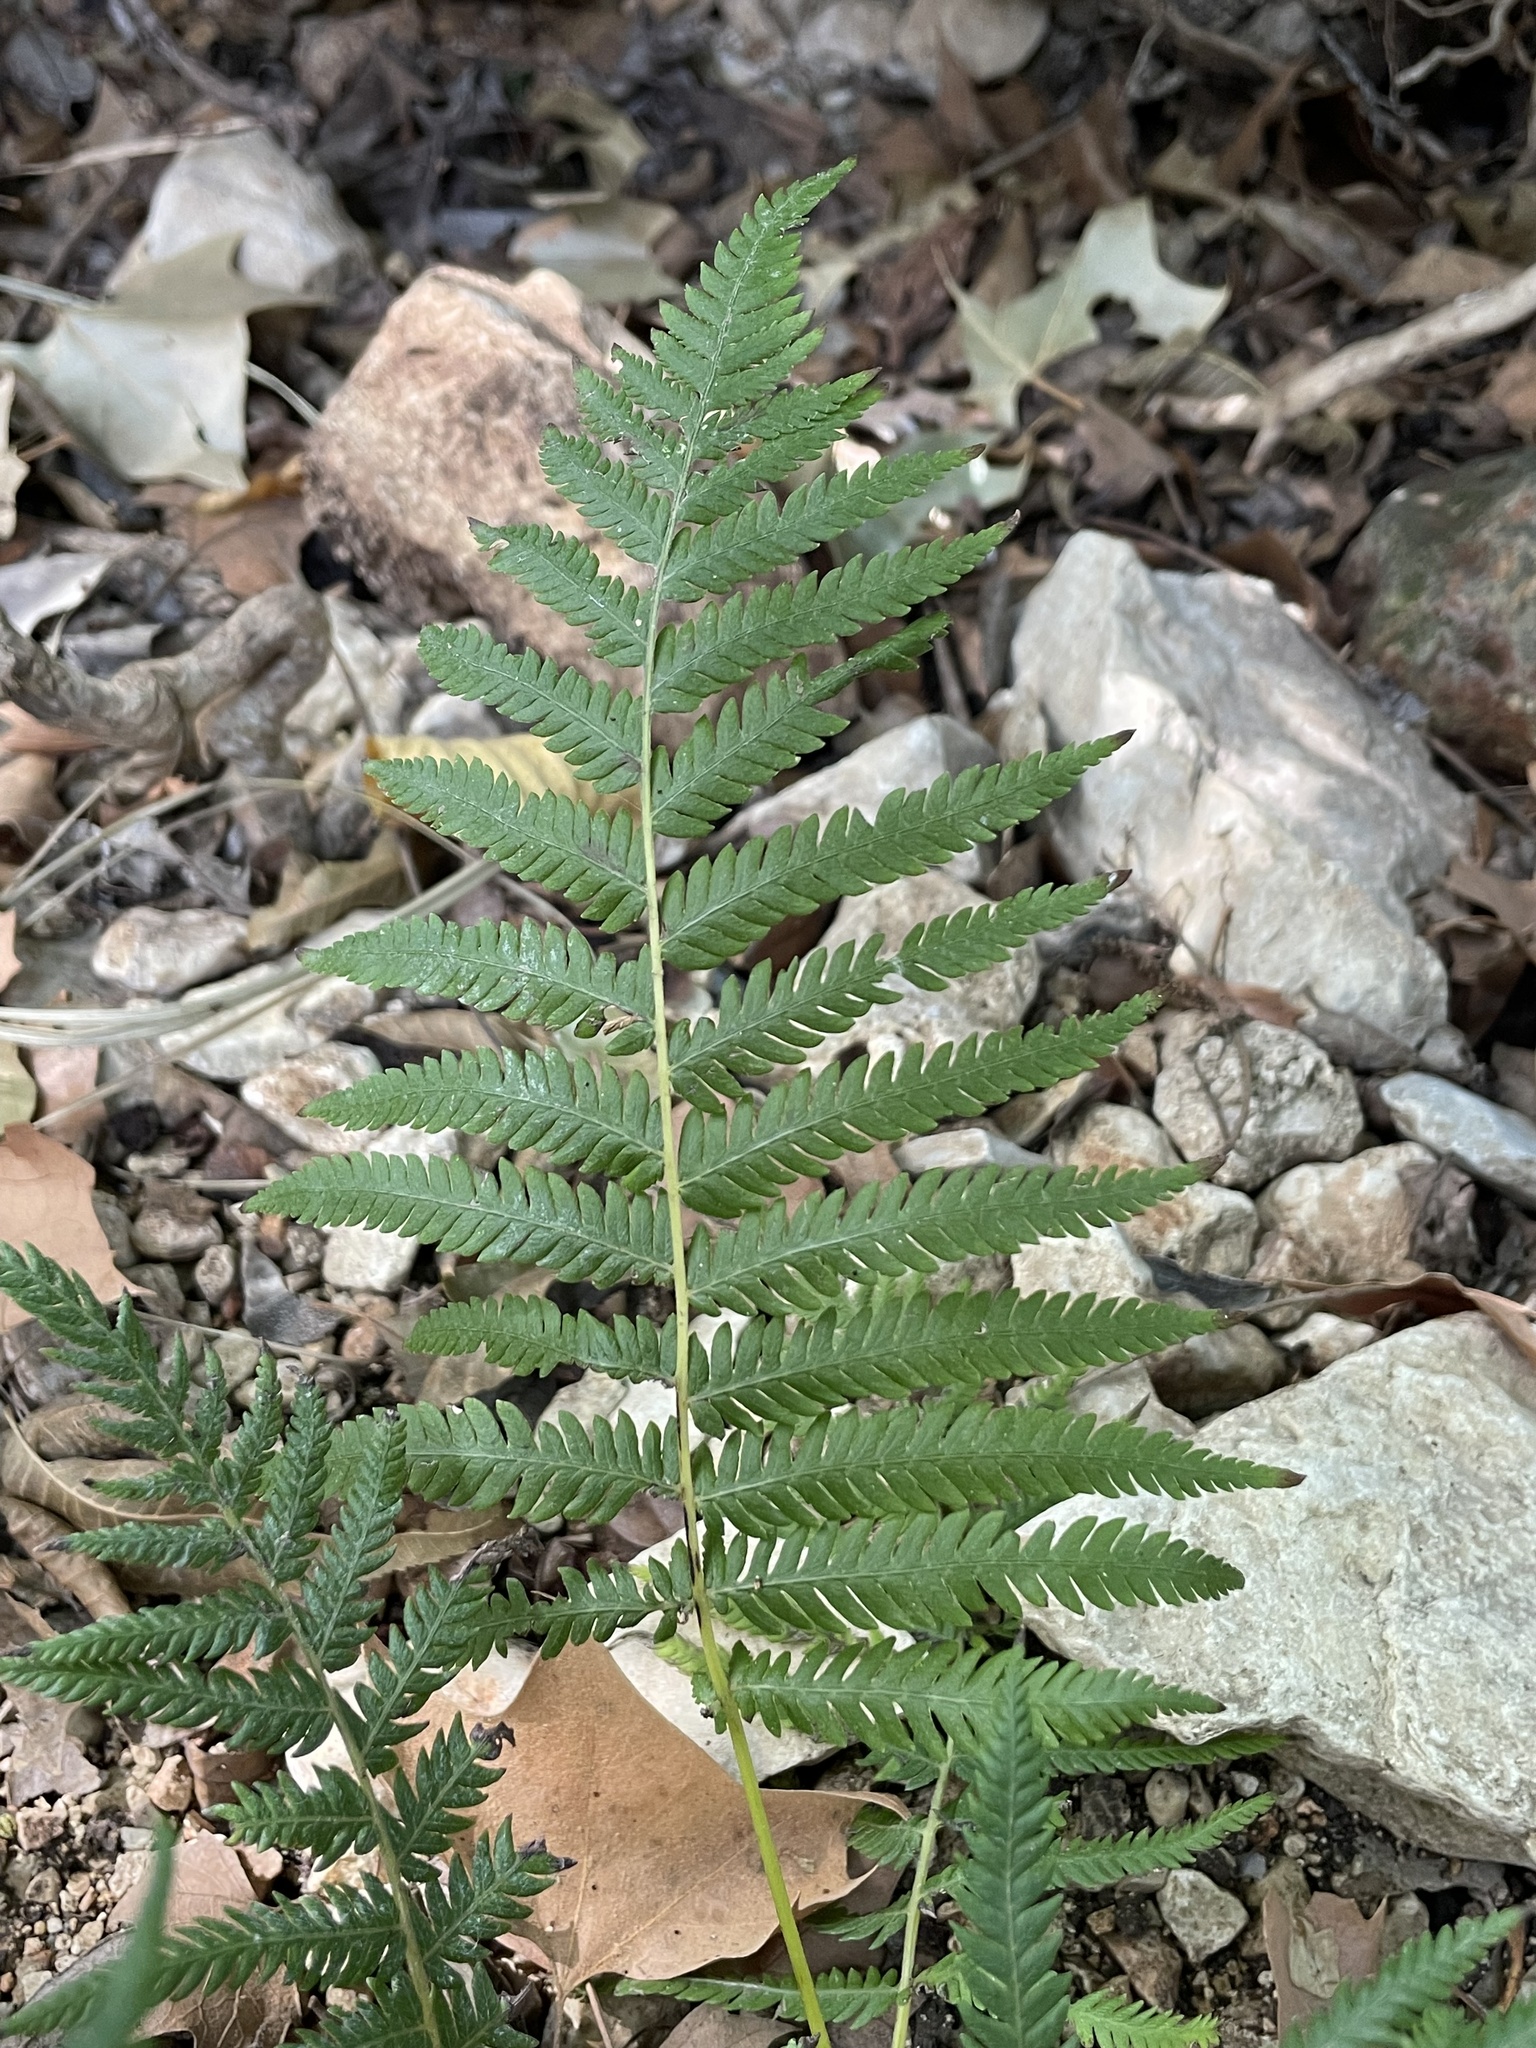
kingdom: Plantae
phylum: Tracheophyta
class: Polypodiopsida
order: Polypodiales
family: Thelypteridaceae
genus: Pelazoneuron
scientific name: Pelazoneuron ovatum
